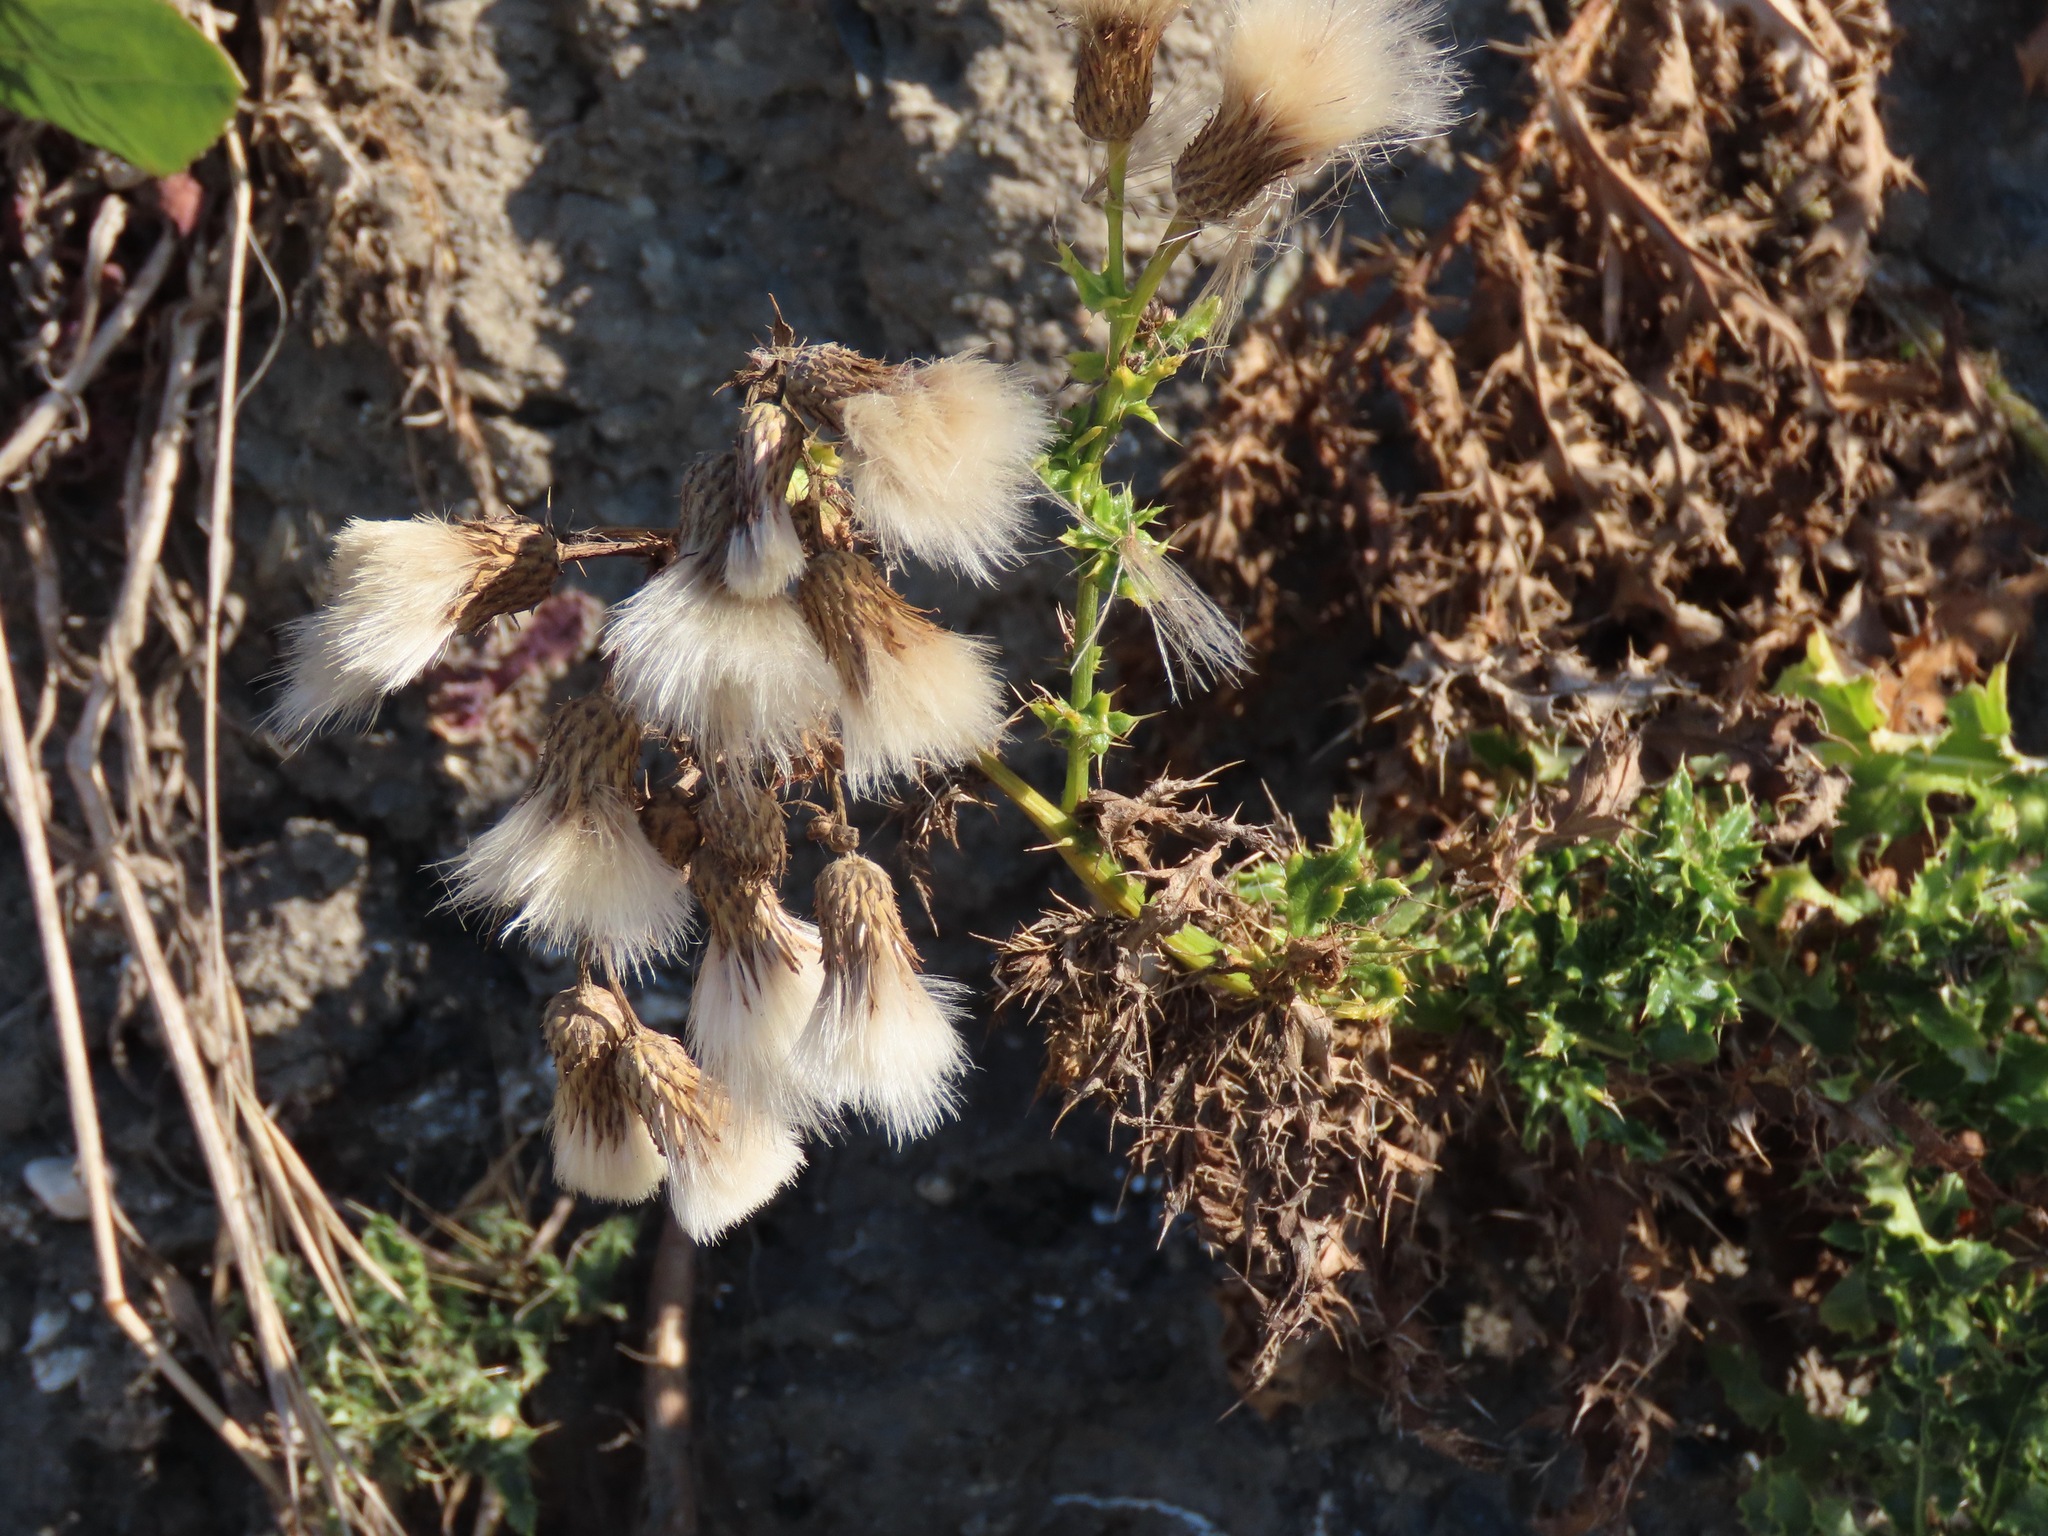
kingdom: Plantae
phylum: Tracheophyta
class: Magnoliopsida
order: Asterales
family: Asteraceae
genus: Cirsium
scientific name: Cirsium arvense
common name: Creeping thistle
